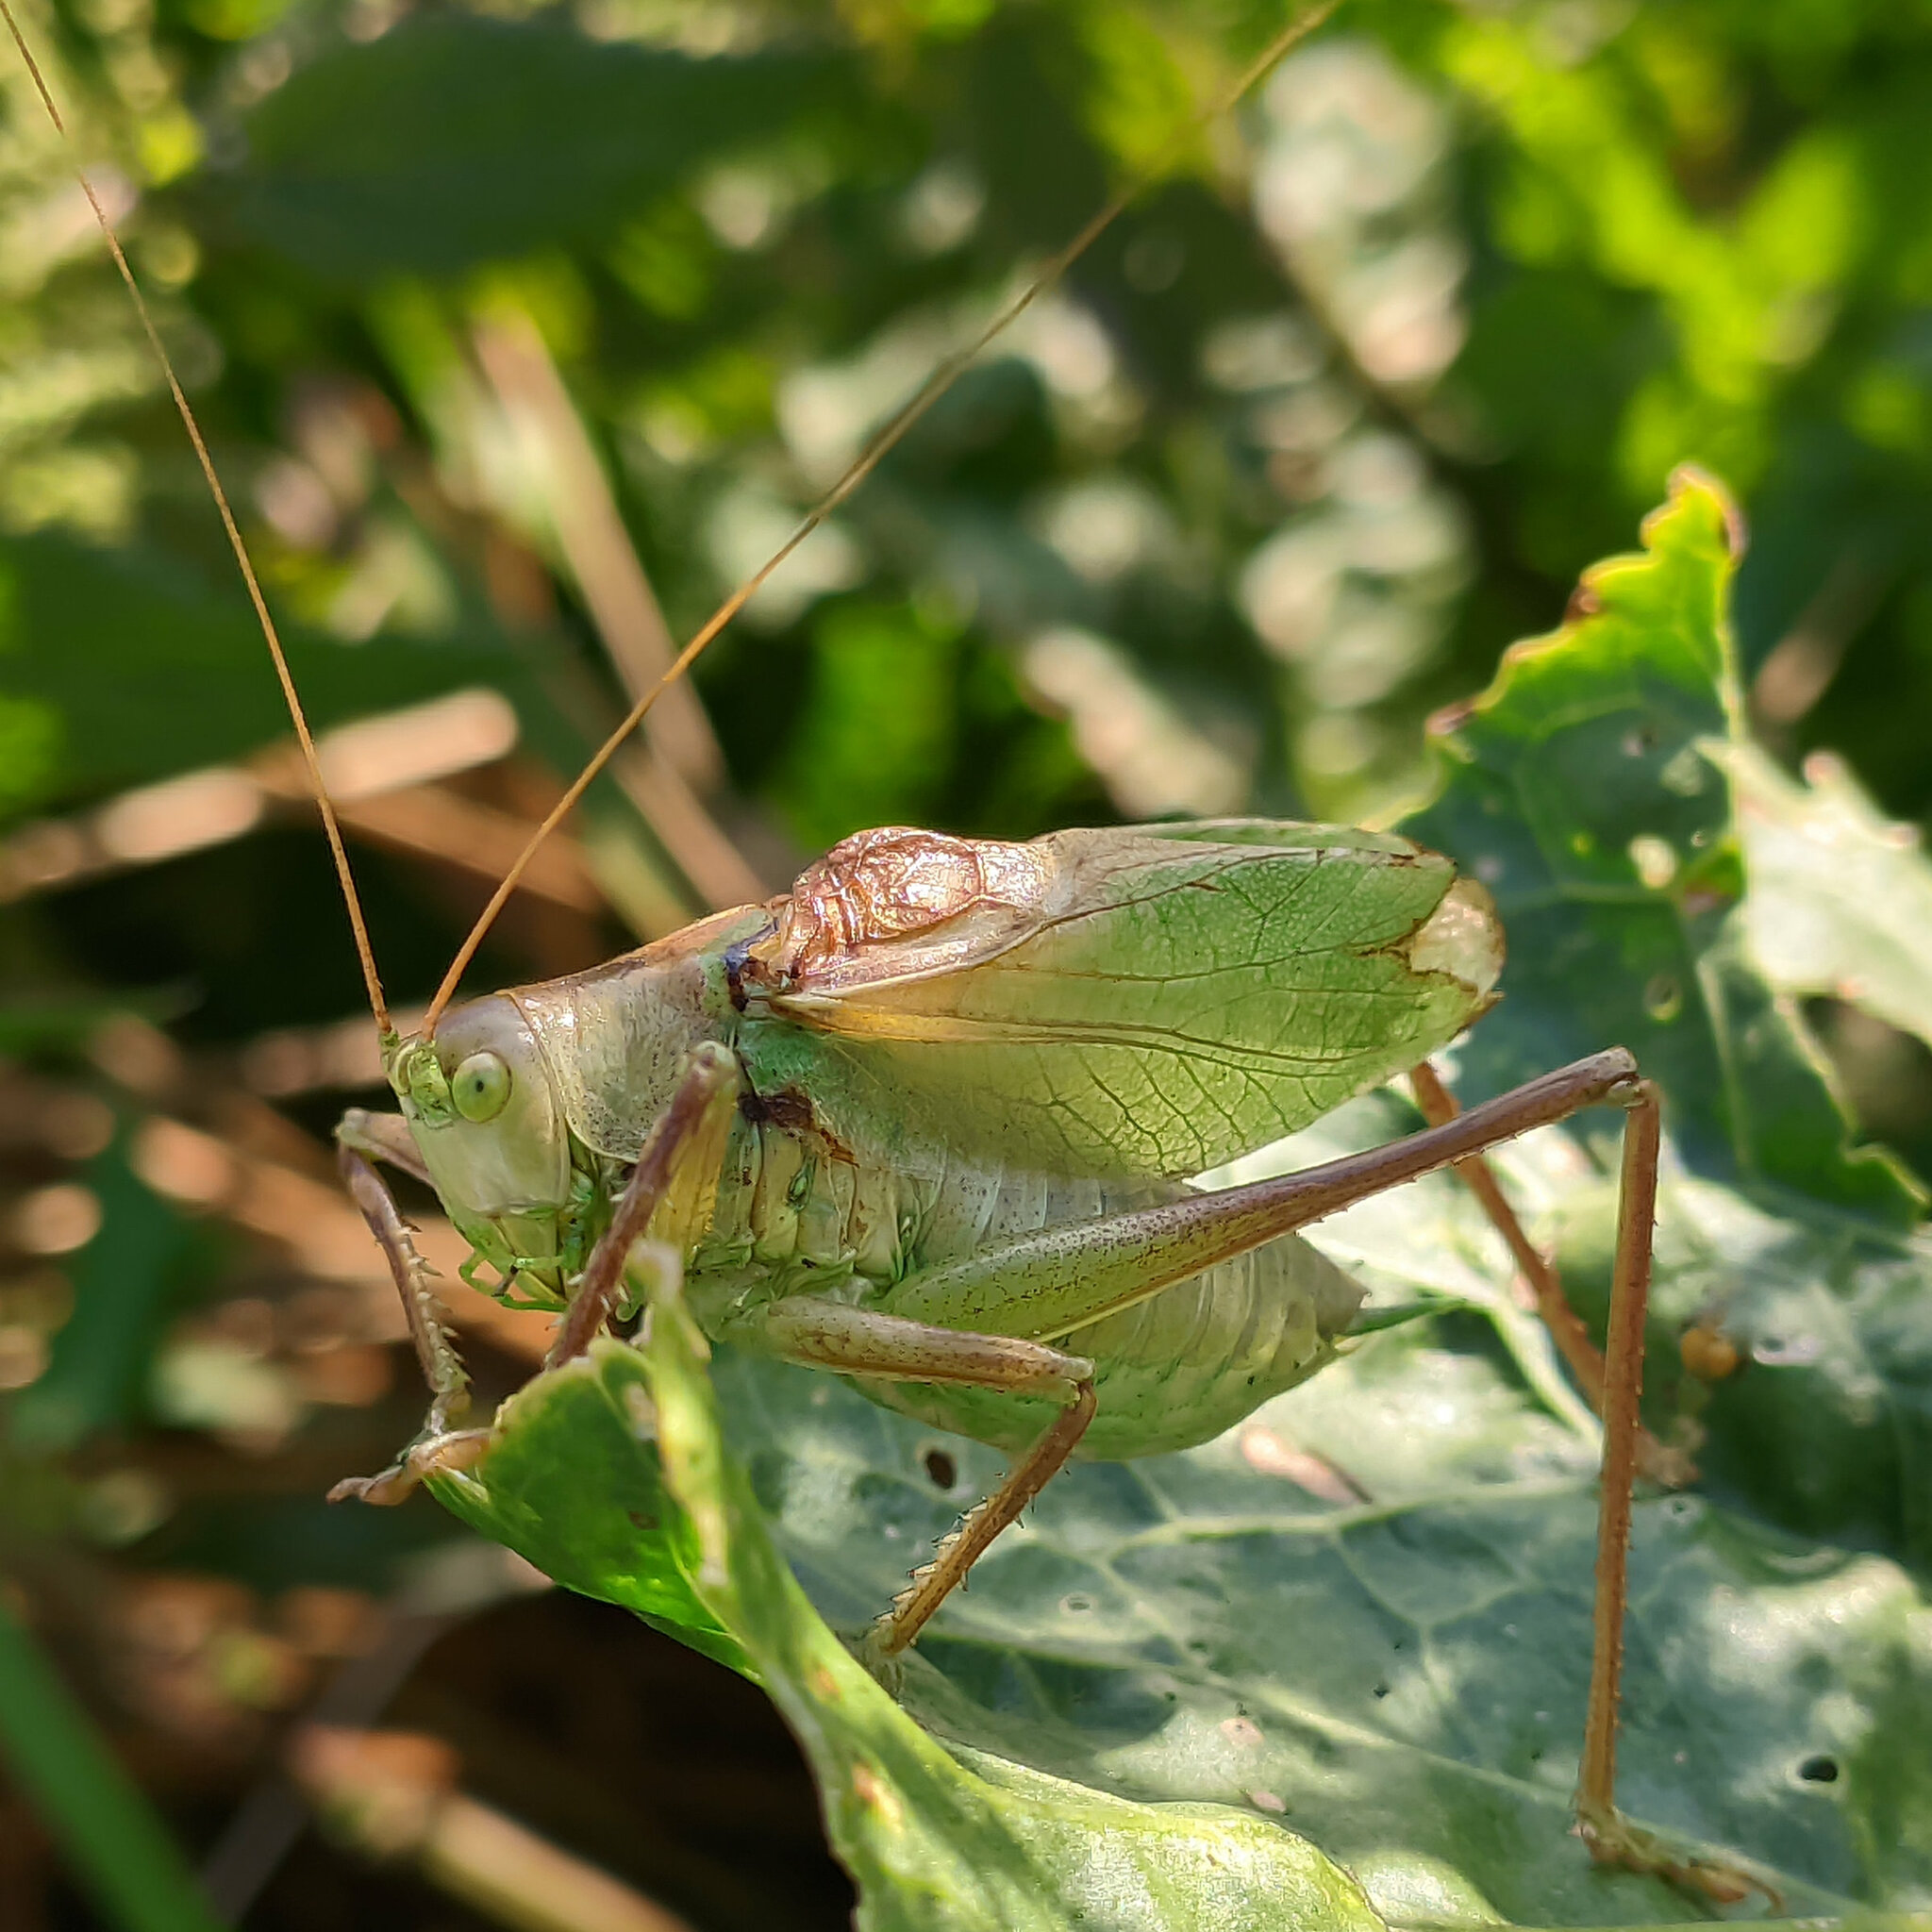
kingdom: Animalia
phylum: Arthropoda
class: Insecta
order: Orthoptera
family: Tettigoniidae
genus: Tettigonia
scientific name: Tettigonia cantans
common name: Upland green bush-cricket
